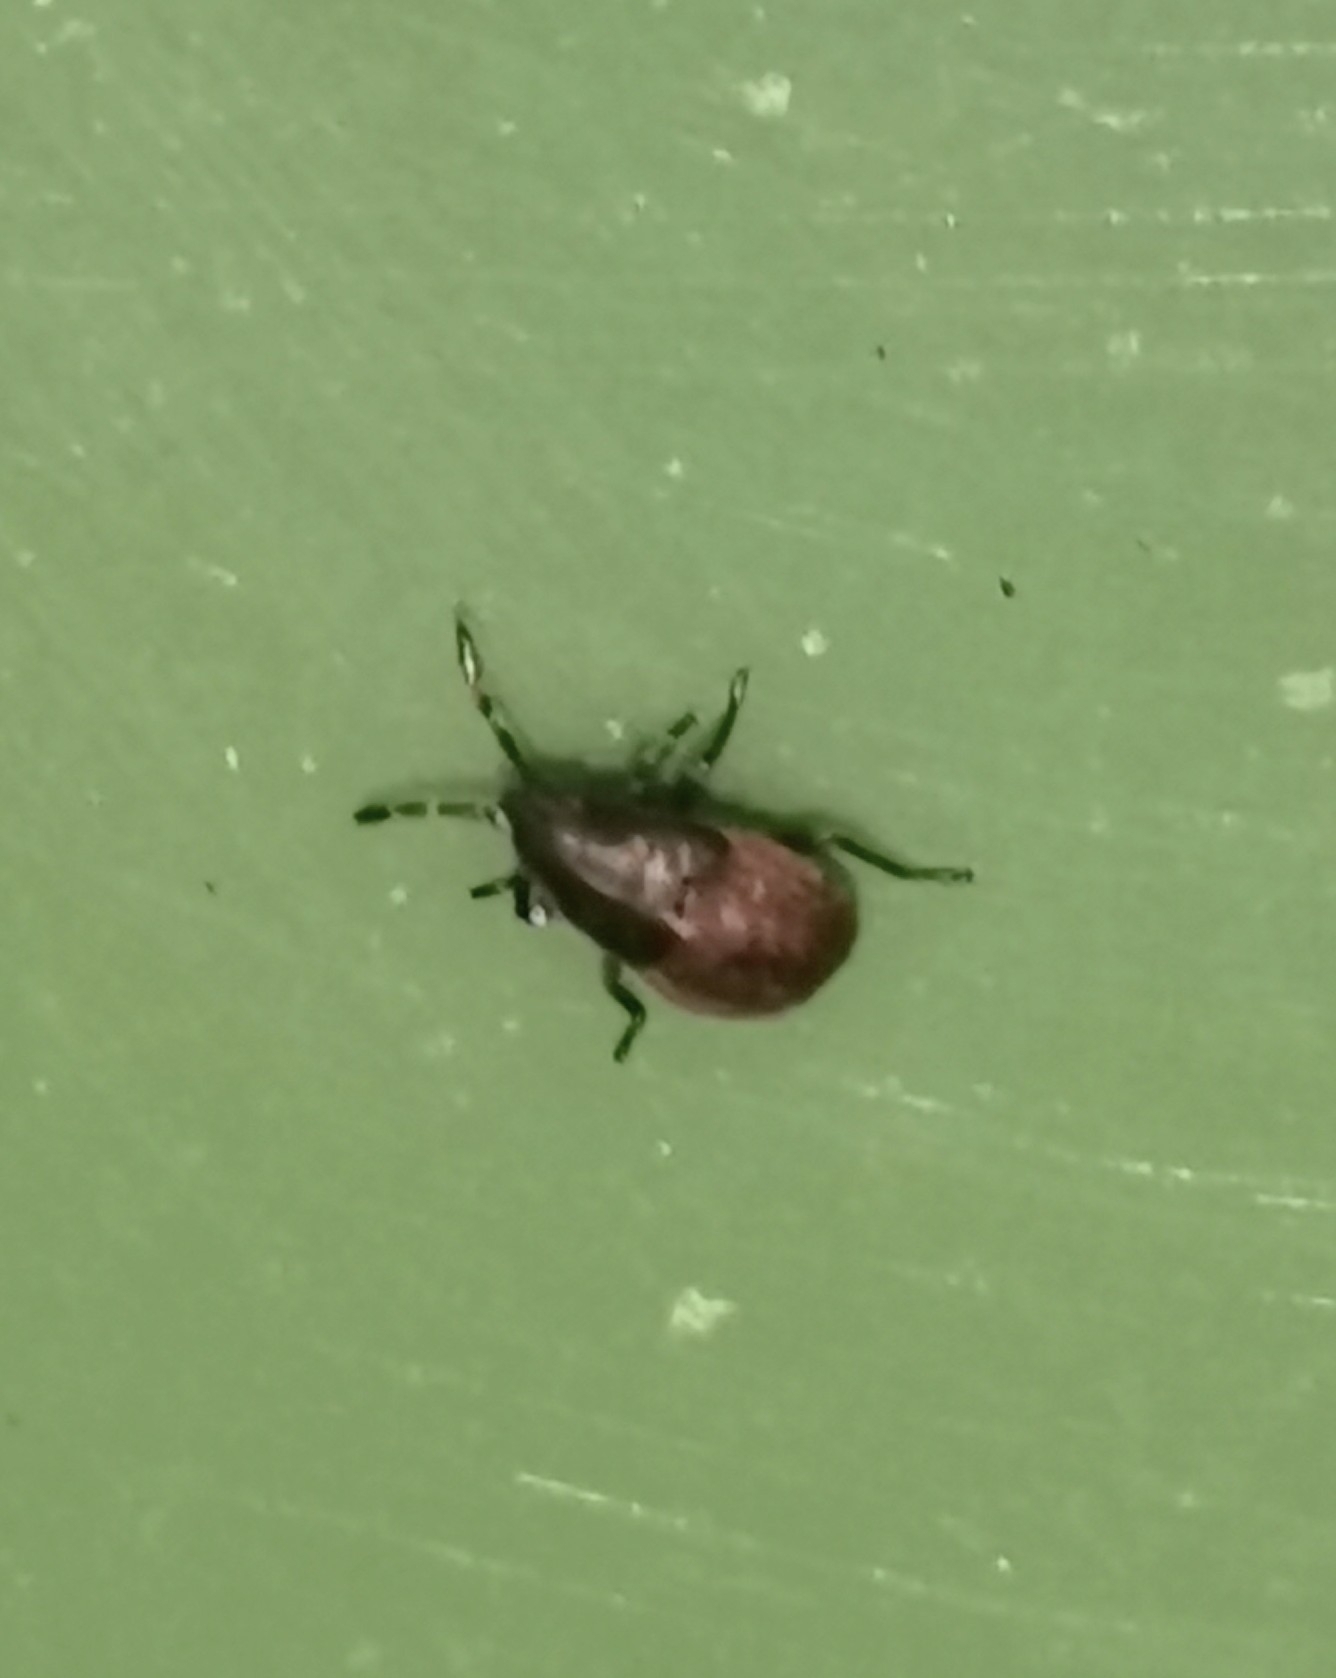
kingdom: Animalia
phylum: Arthropoda
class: Insecta
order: Hemiptera
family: Lygaeidae
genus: Kleidocerys
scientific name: Kleidocerys resedae
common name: Birch catkin bug
